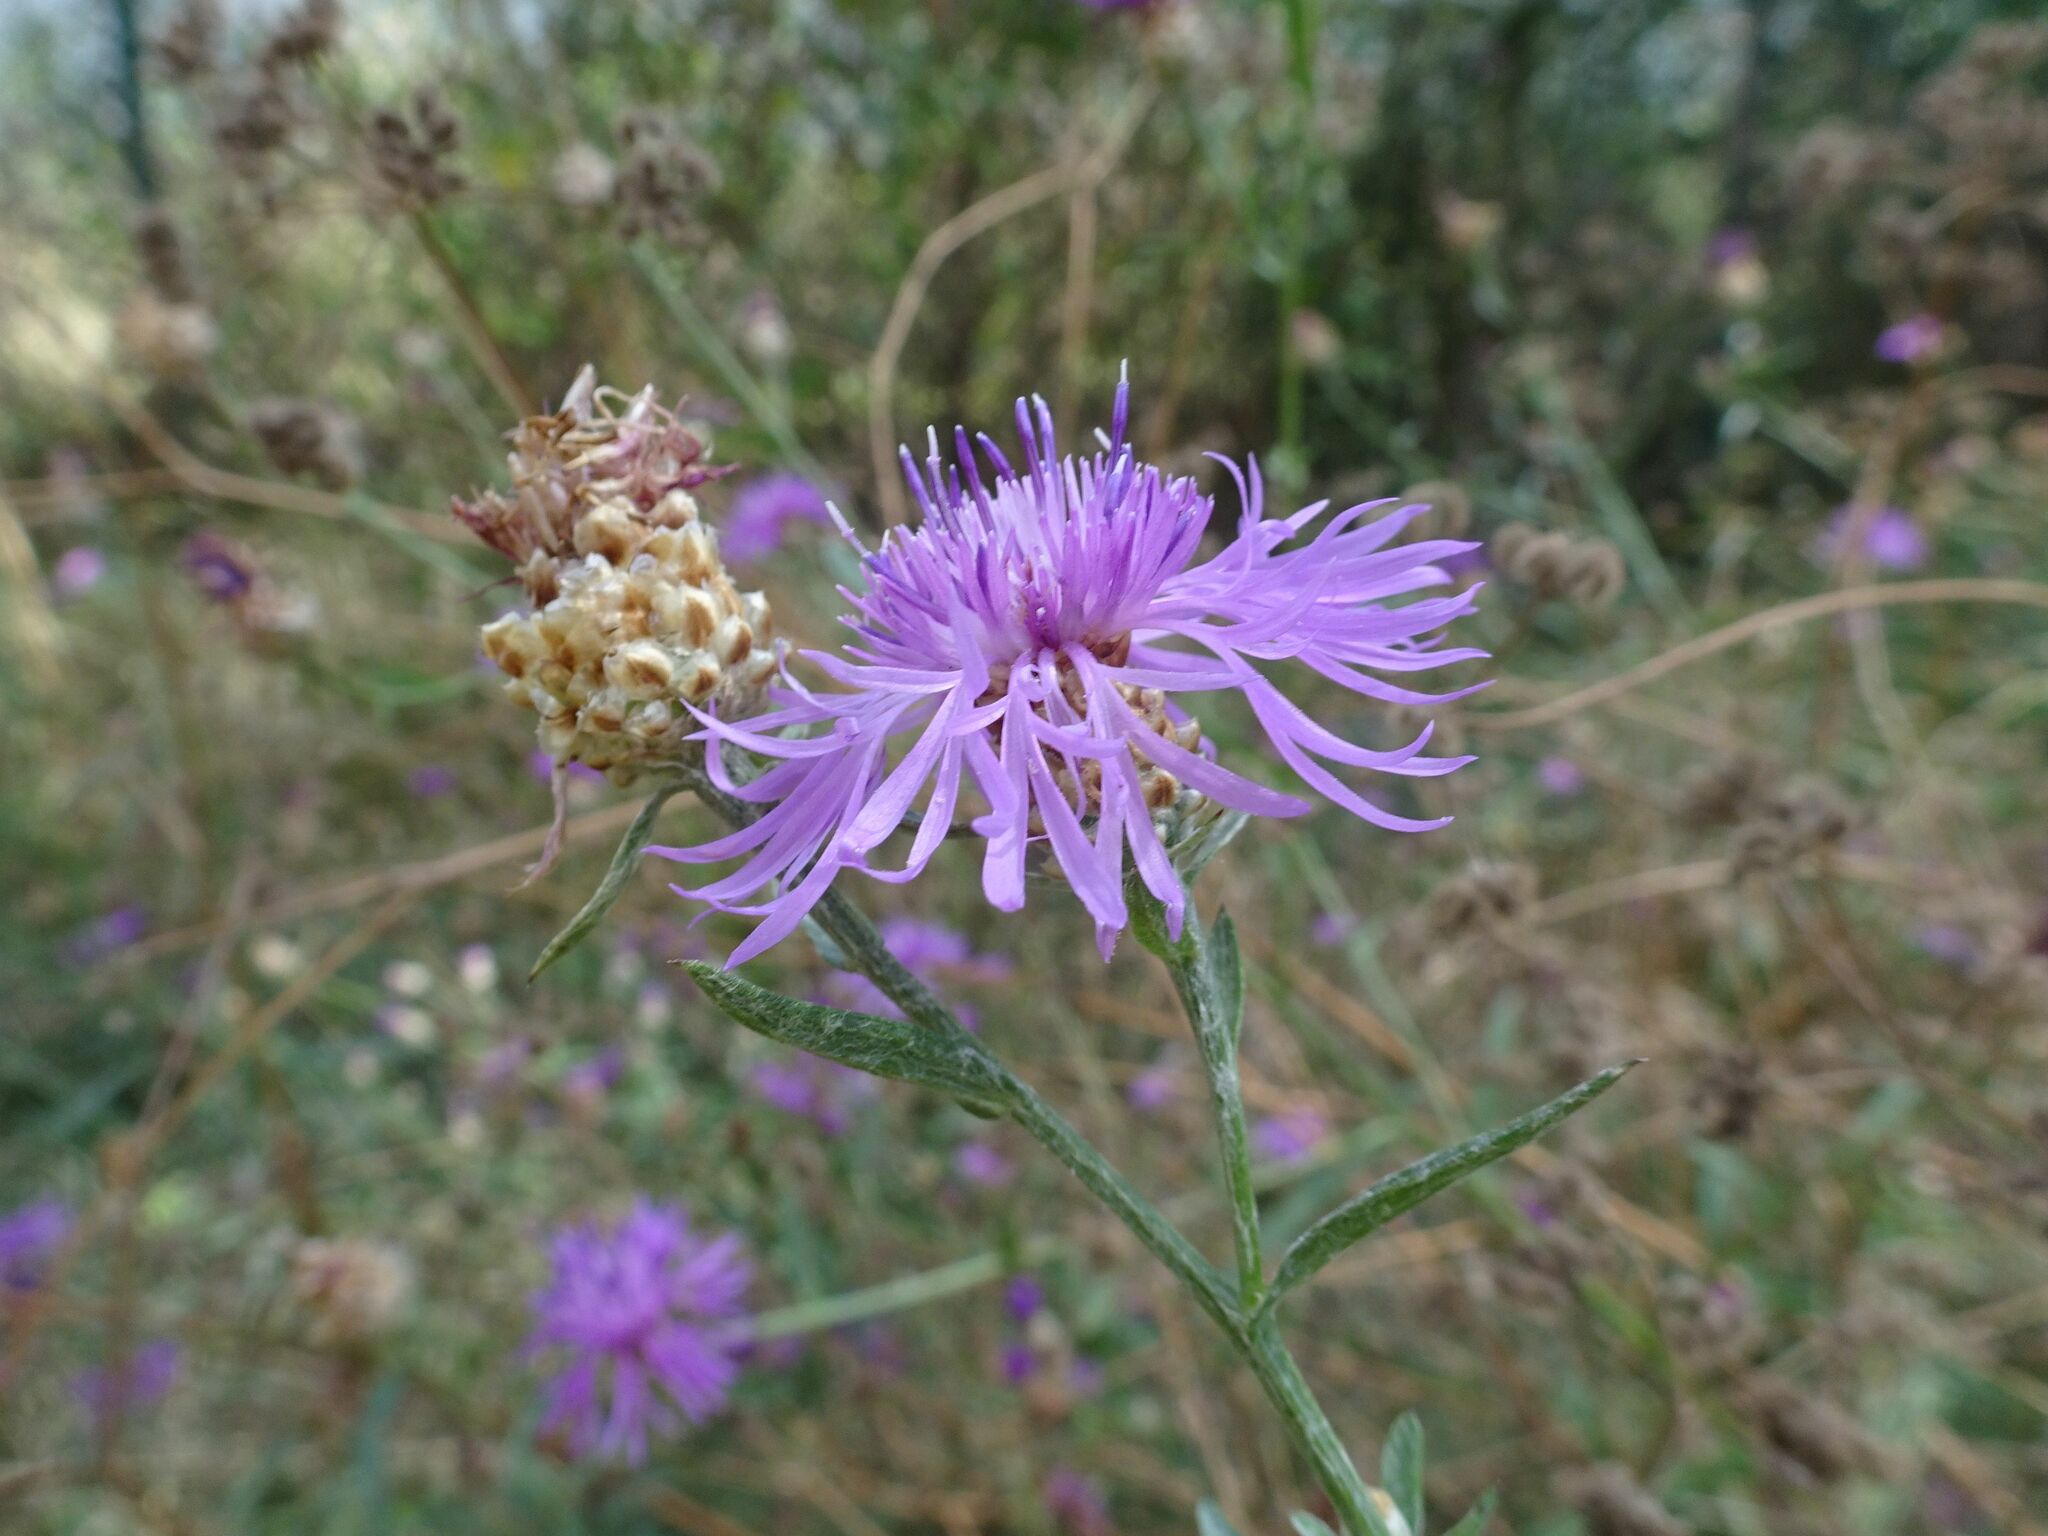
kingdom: Plantae
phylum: Tracheophyta
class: Magnoliopsida
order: Asterales
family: Asteraceae
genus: Centaurea
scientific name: Centaurea jacea
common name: Brown knapweed
